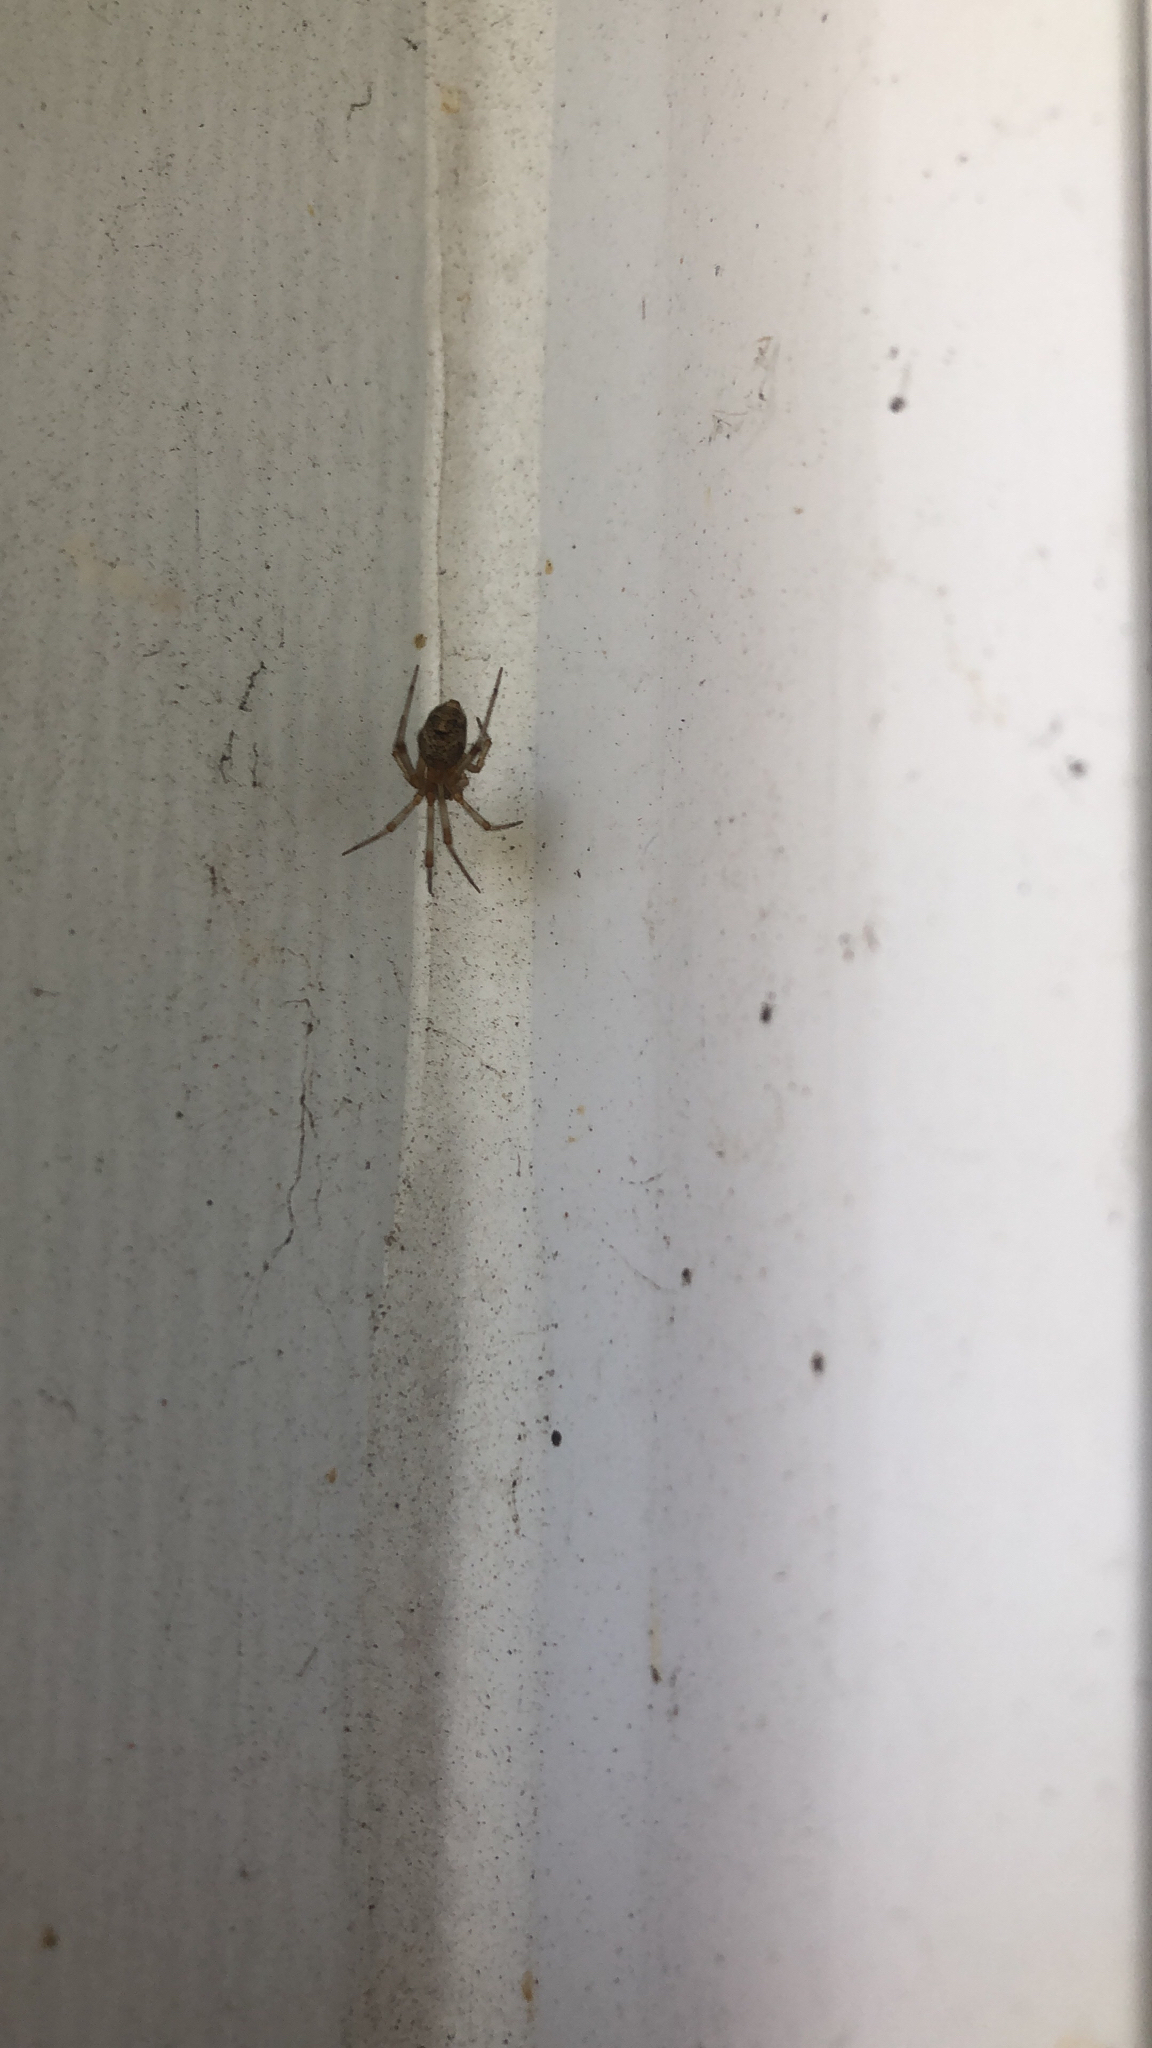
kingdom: Animalia
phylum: Arthropoda
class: Arachnida
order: Araneae
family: Theridiidae
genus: Parasteatoda
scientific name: Parasteatoda tepidariorum
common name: Common house spider
